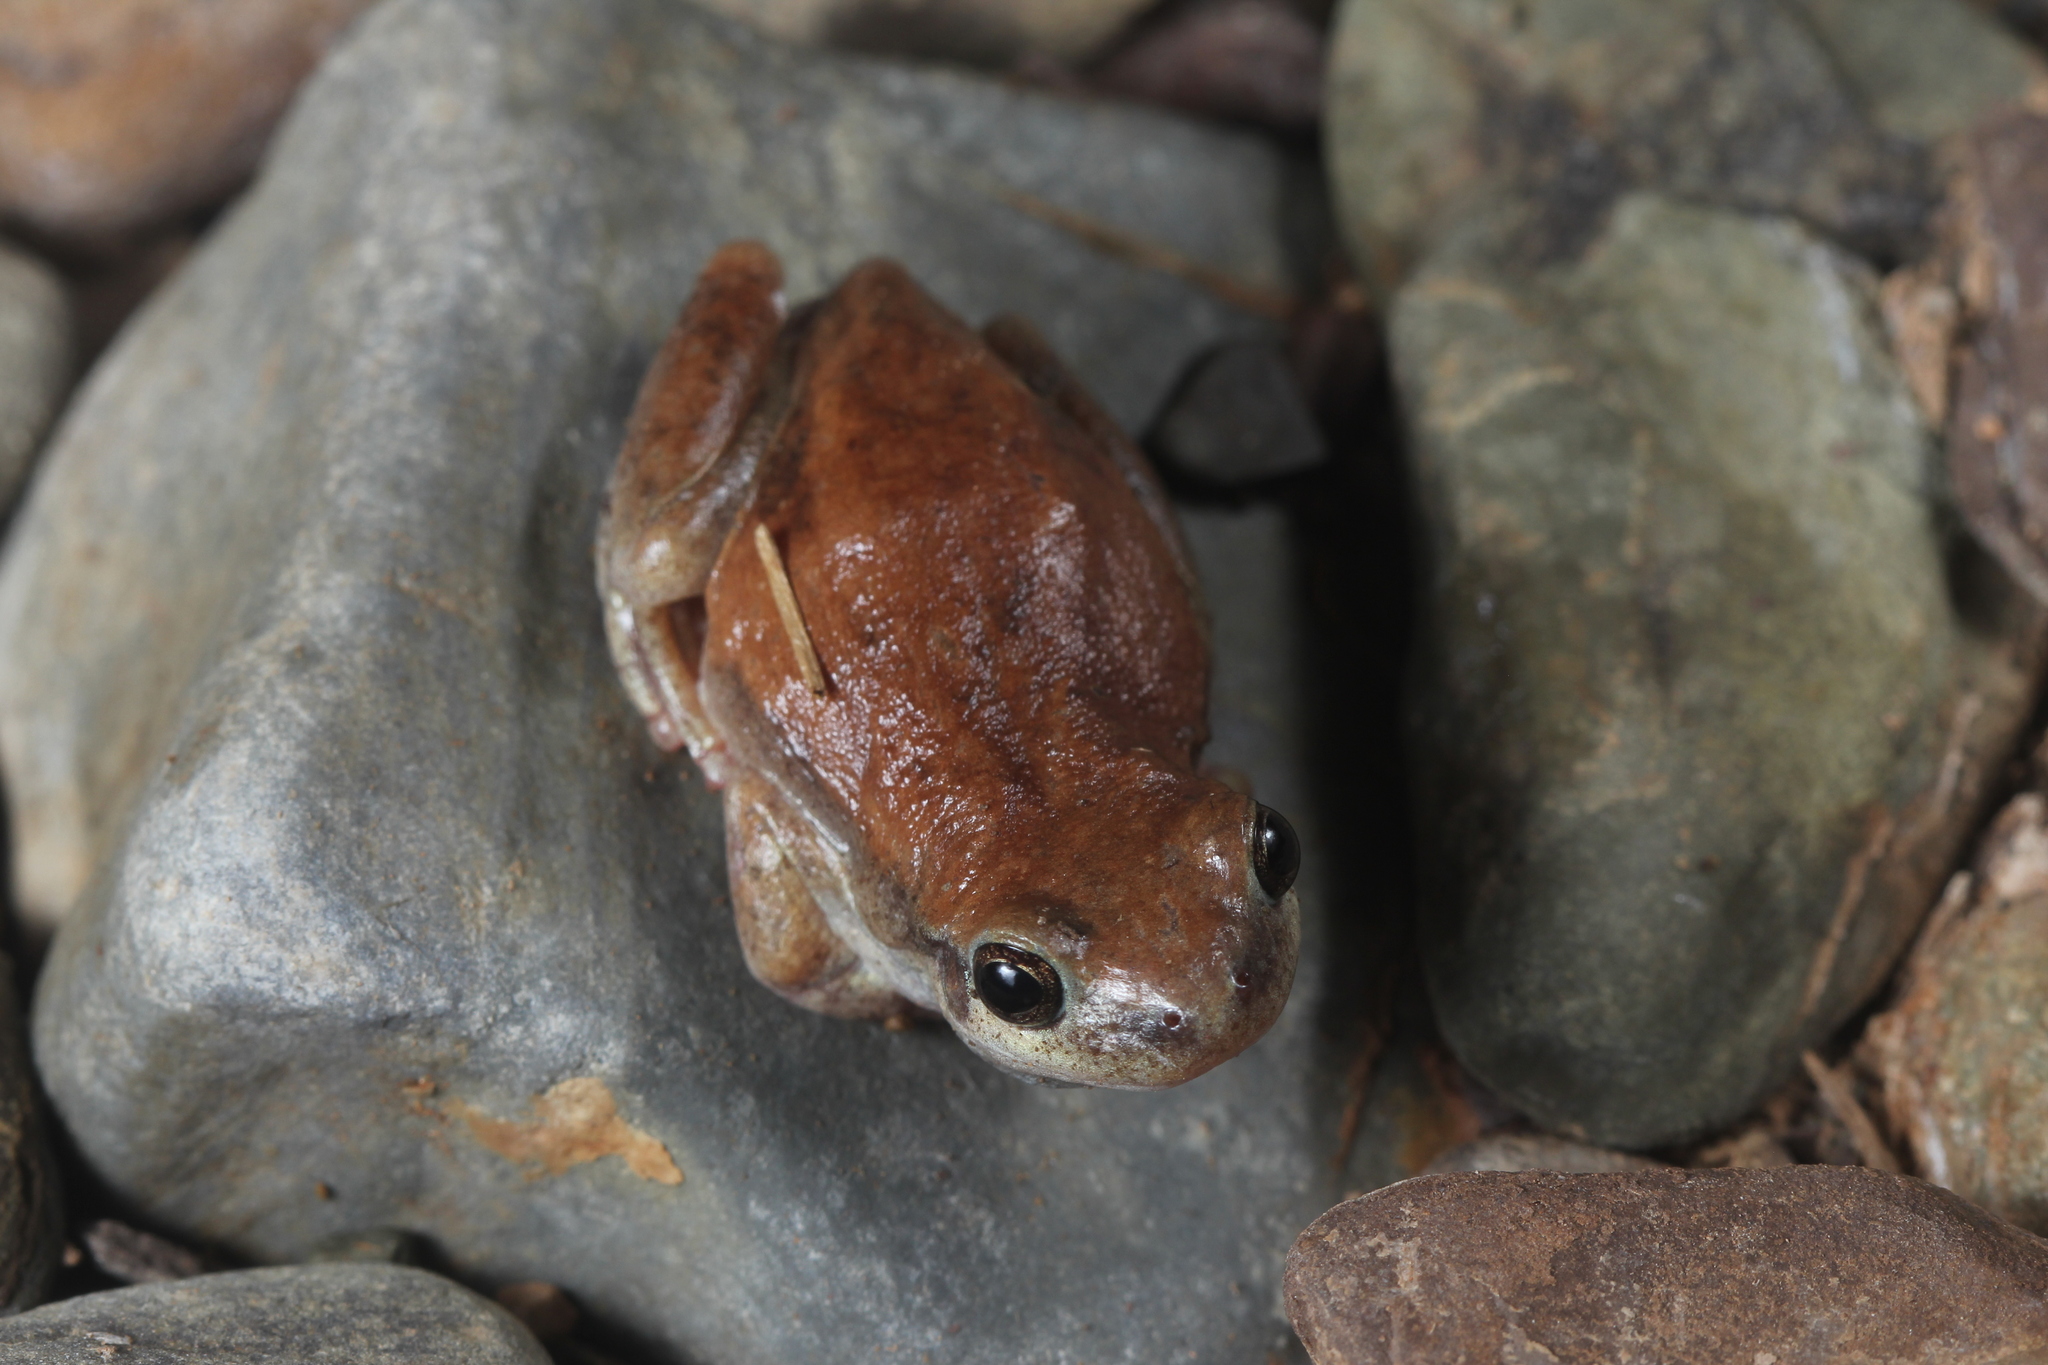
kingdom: Animalia
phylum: Chordata
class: Amphibia
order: Anura
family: Pelodryadidae
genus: Litoria
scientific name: Litoria rubella
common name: Desert tree frog
